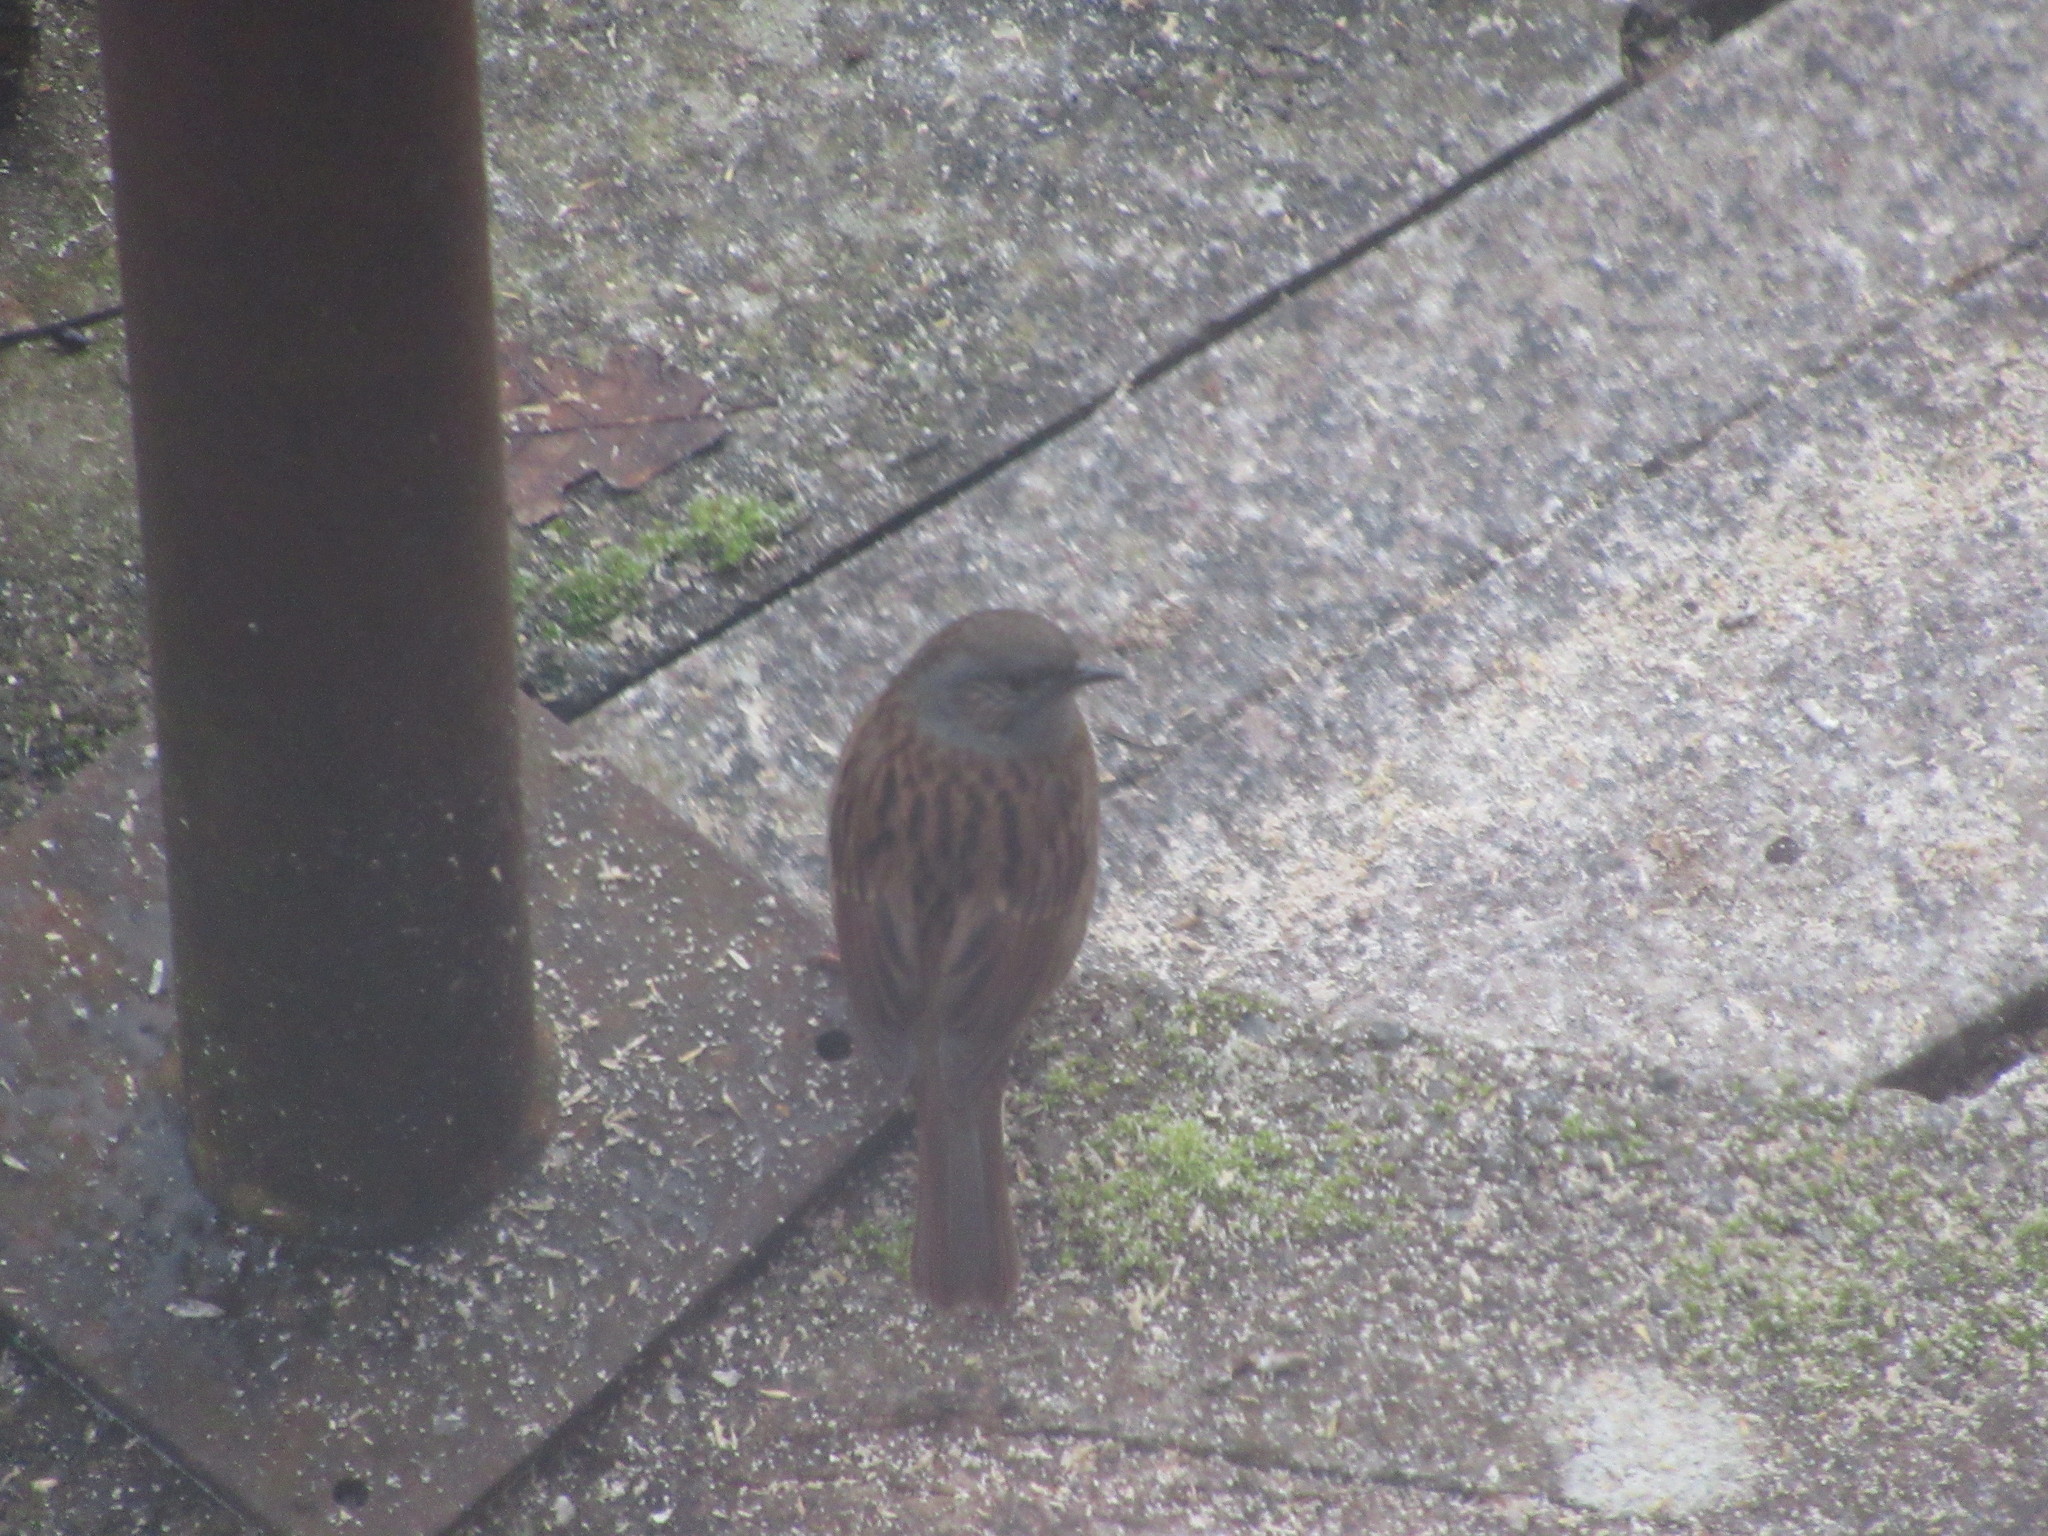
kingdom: Animalia
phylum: Chordata
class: Aves
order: Passeriformes
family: Prunellidae
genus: Prunella
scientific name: Prunella modularis
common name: Dunnock
